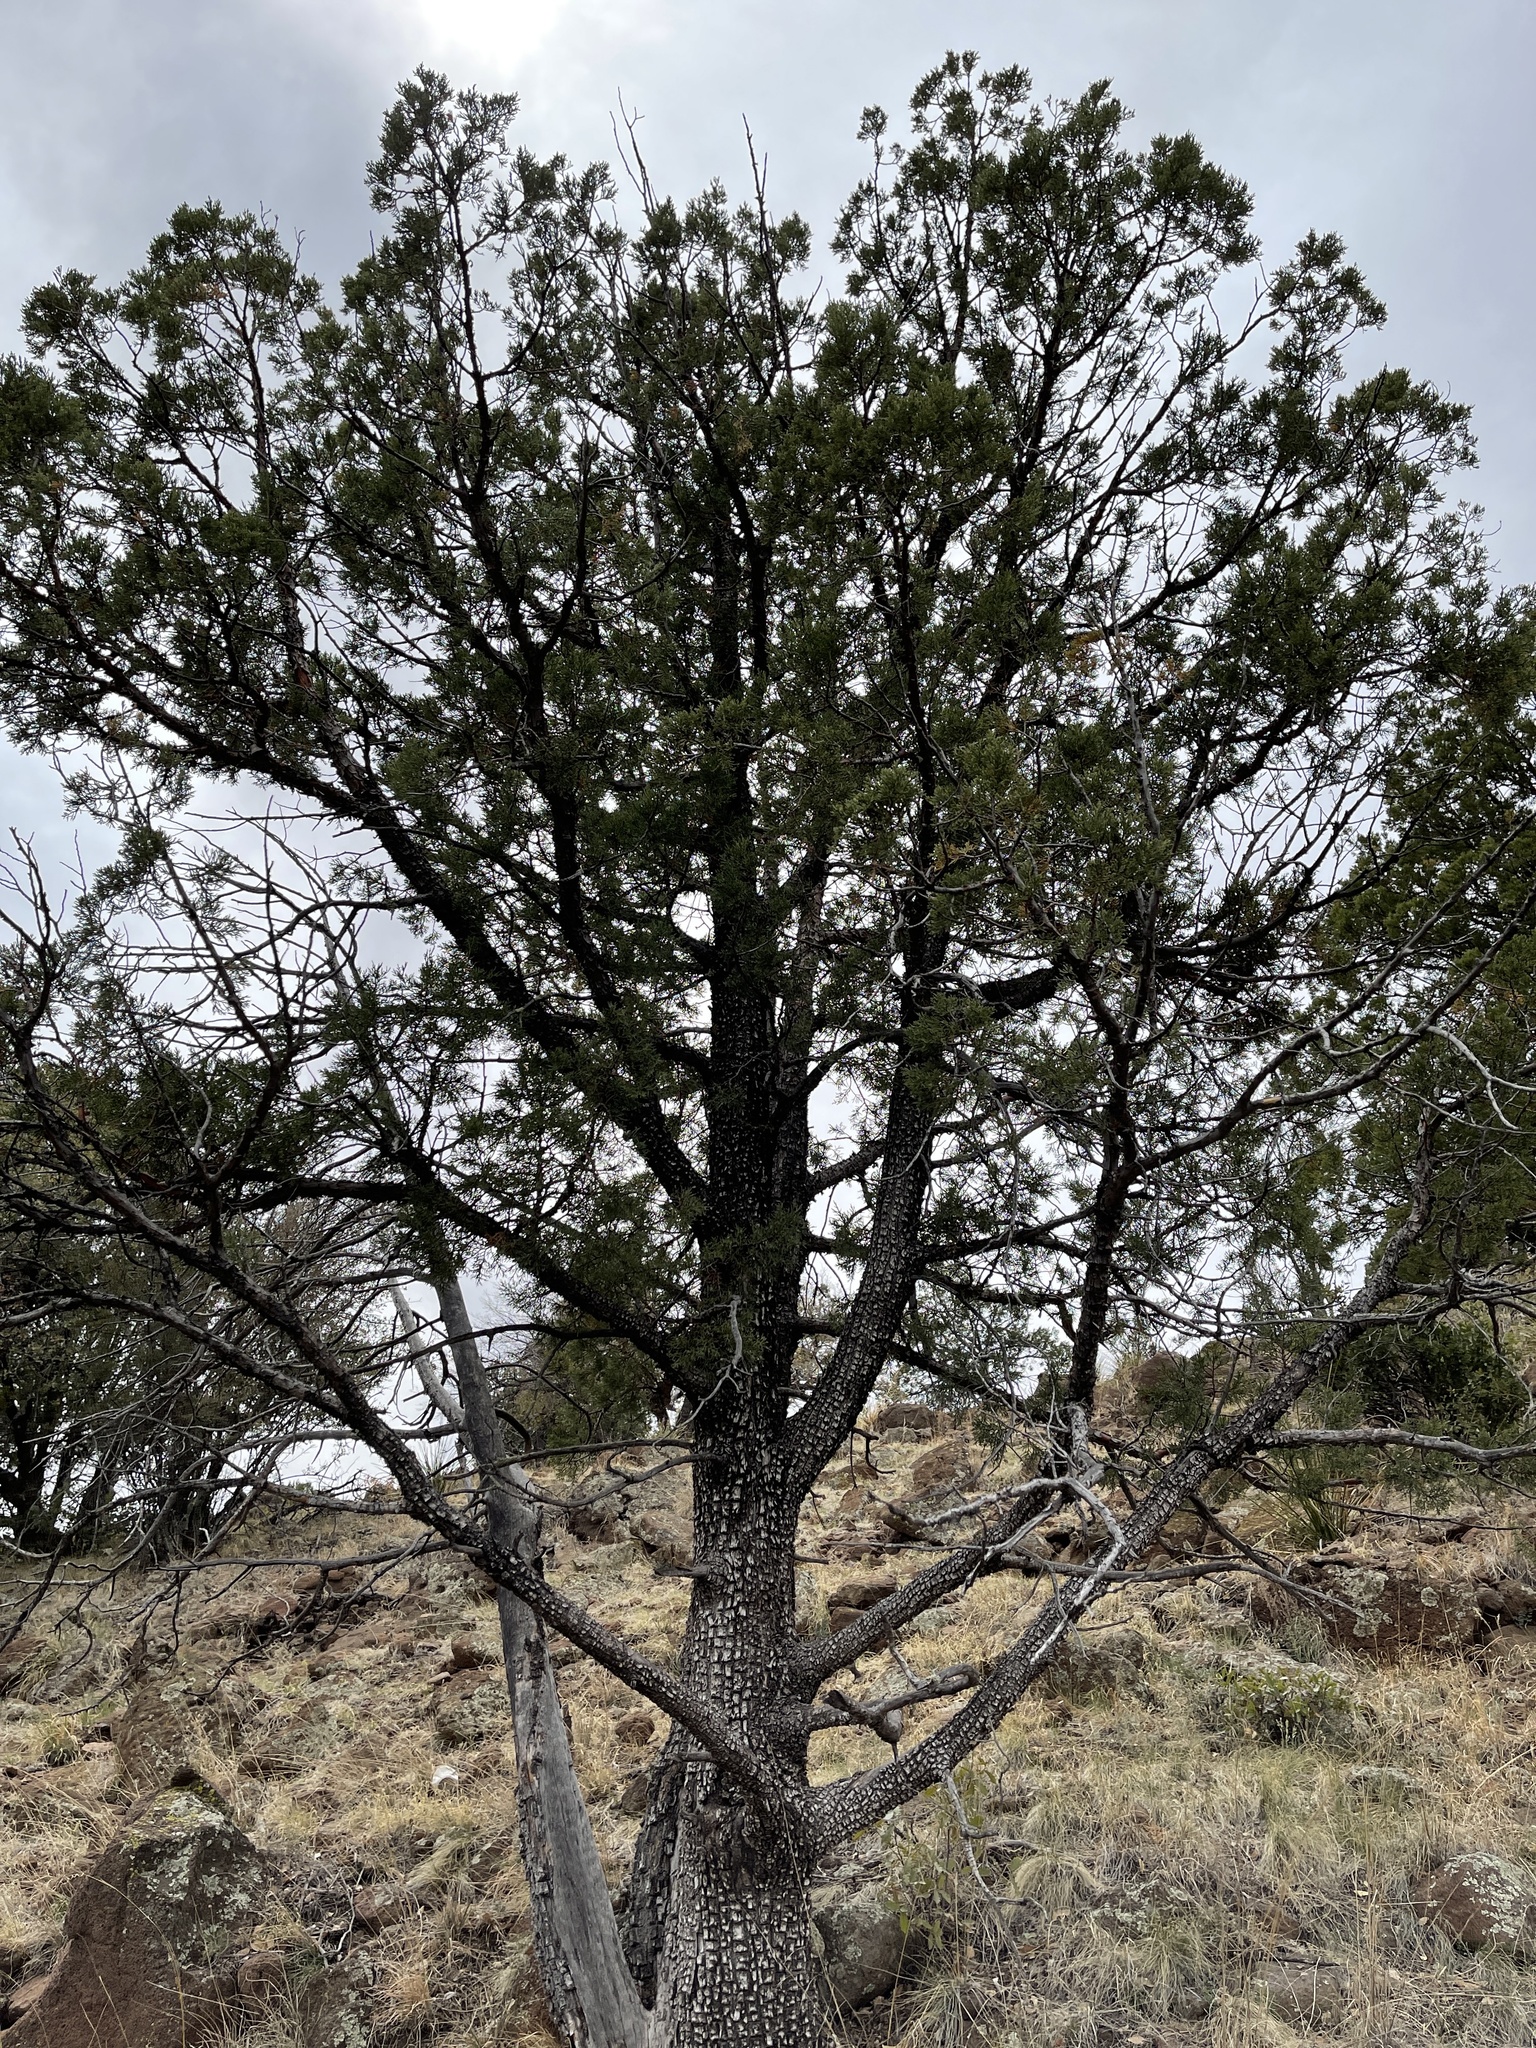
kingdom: Plantae
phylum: Tracheophyta
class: Pinopsida
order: Pinales
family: Cupressaceae
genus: Juniperus
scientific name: Juniperus deppeana
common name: Alligator juniper
